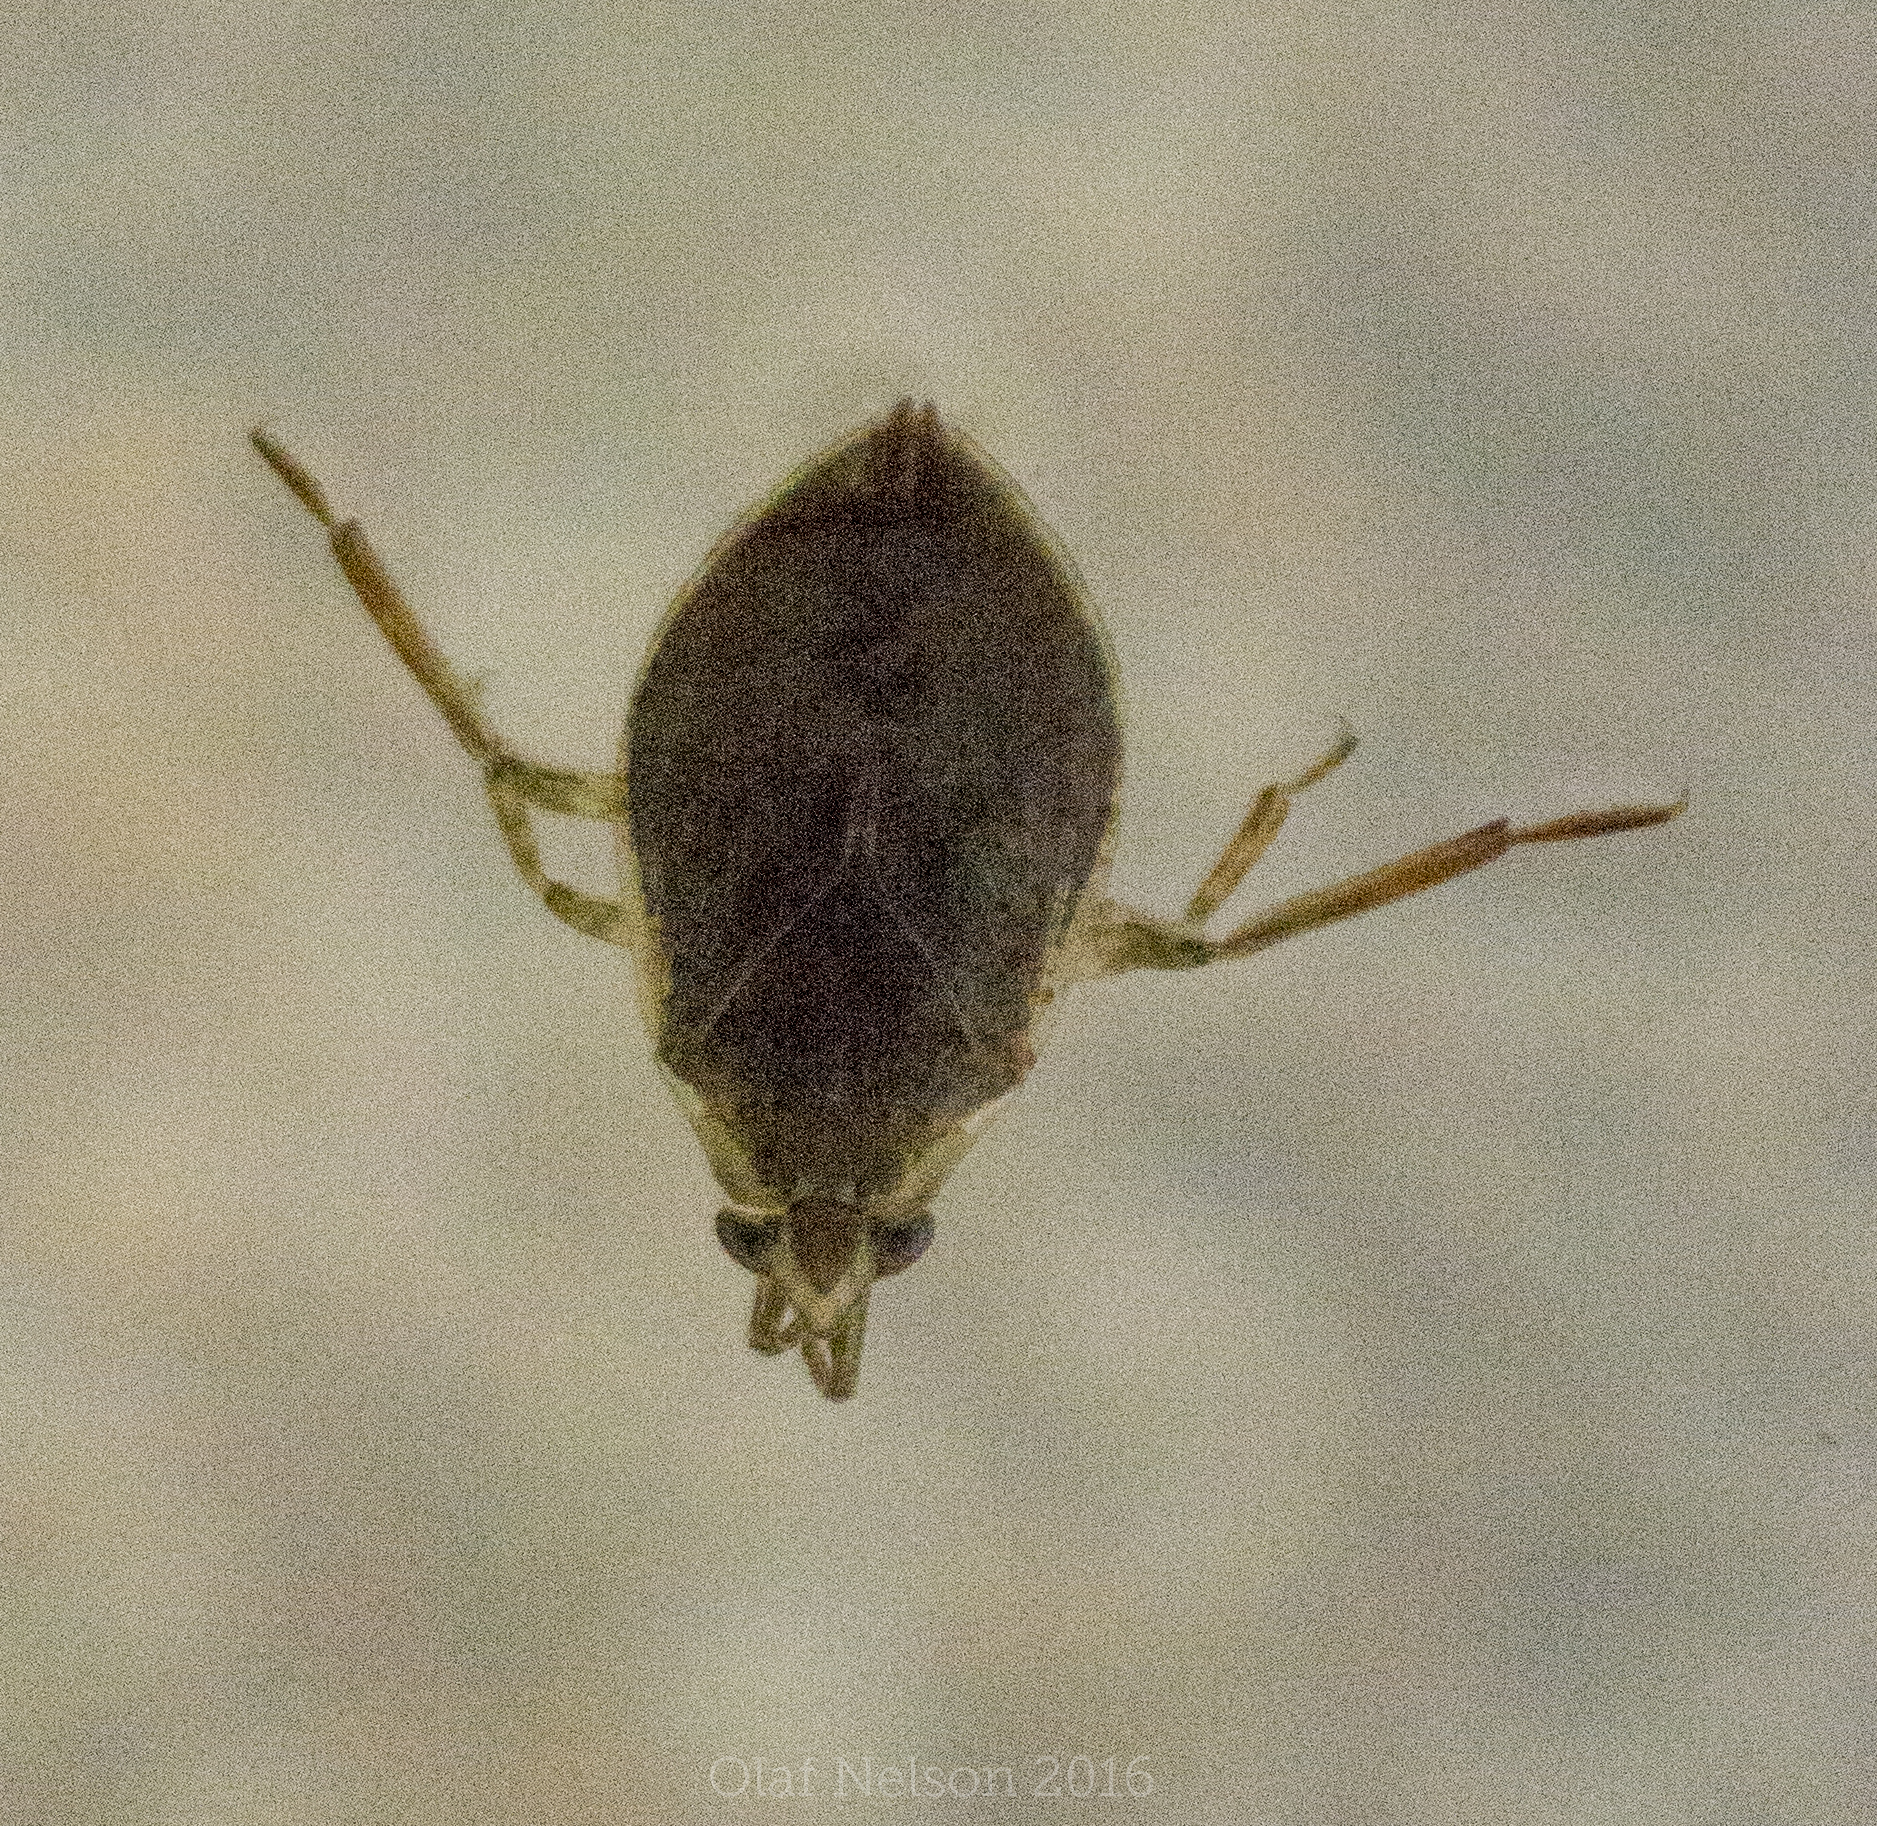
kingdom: Animalia
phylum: Arthropoda
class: Insecta
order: Hemiptera
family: Belostomatidae
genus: Belostoma
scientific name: Belostoma
